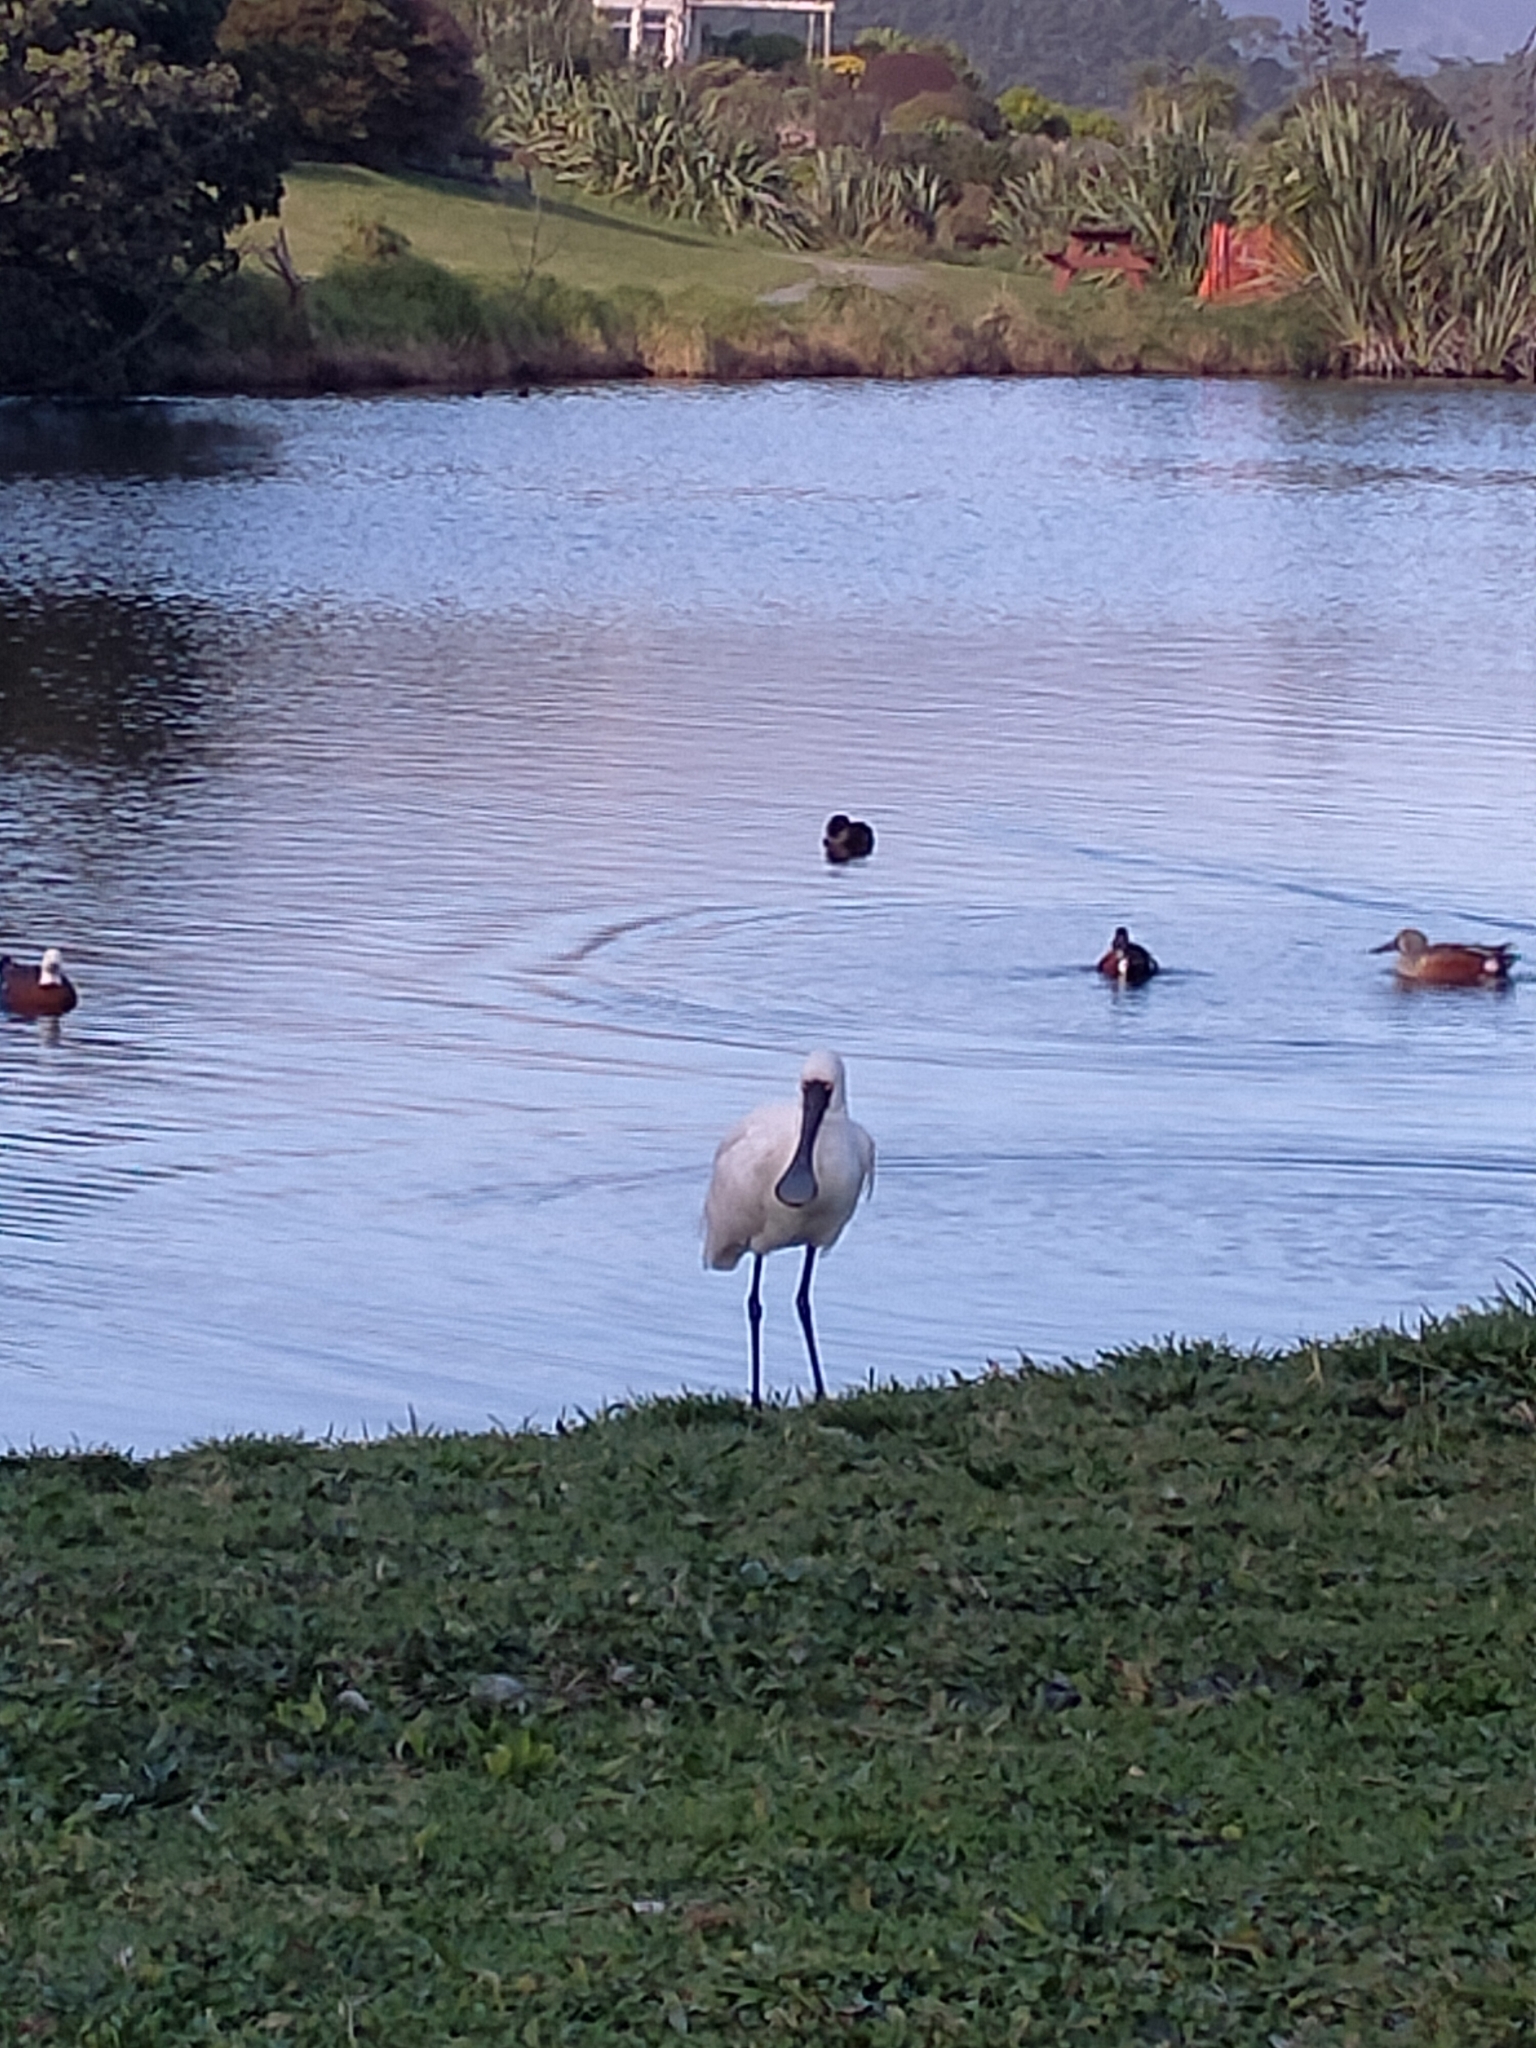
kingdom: Animalia
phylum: Chordata
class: Aves
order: Pelecaniformes
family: Threskiornithidae
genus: Platalea
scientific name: Platalea regia
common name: Royal spoonbill
